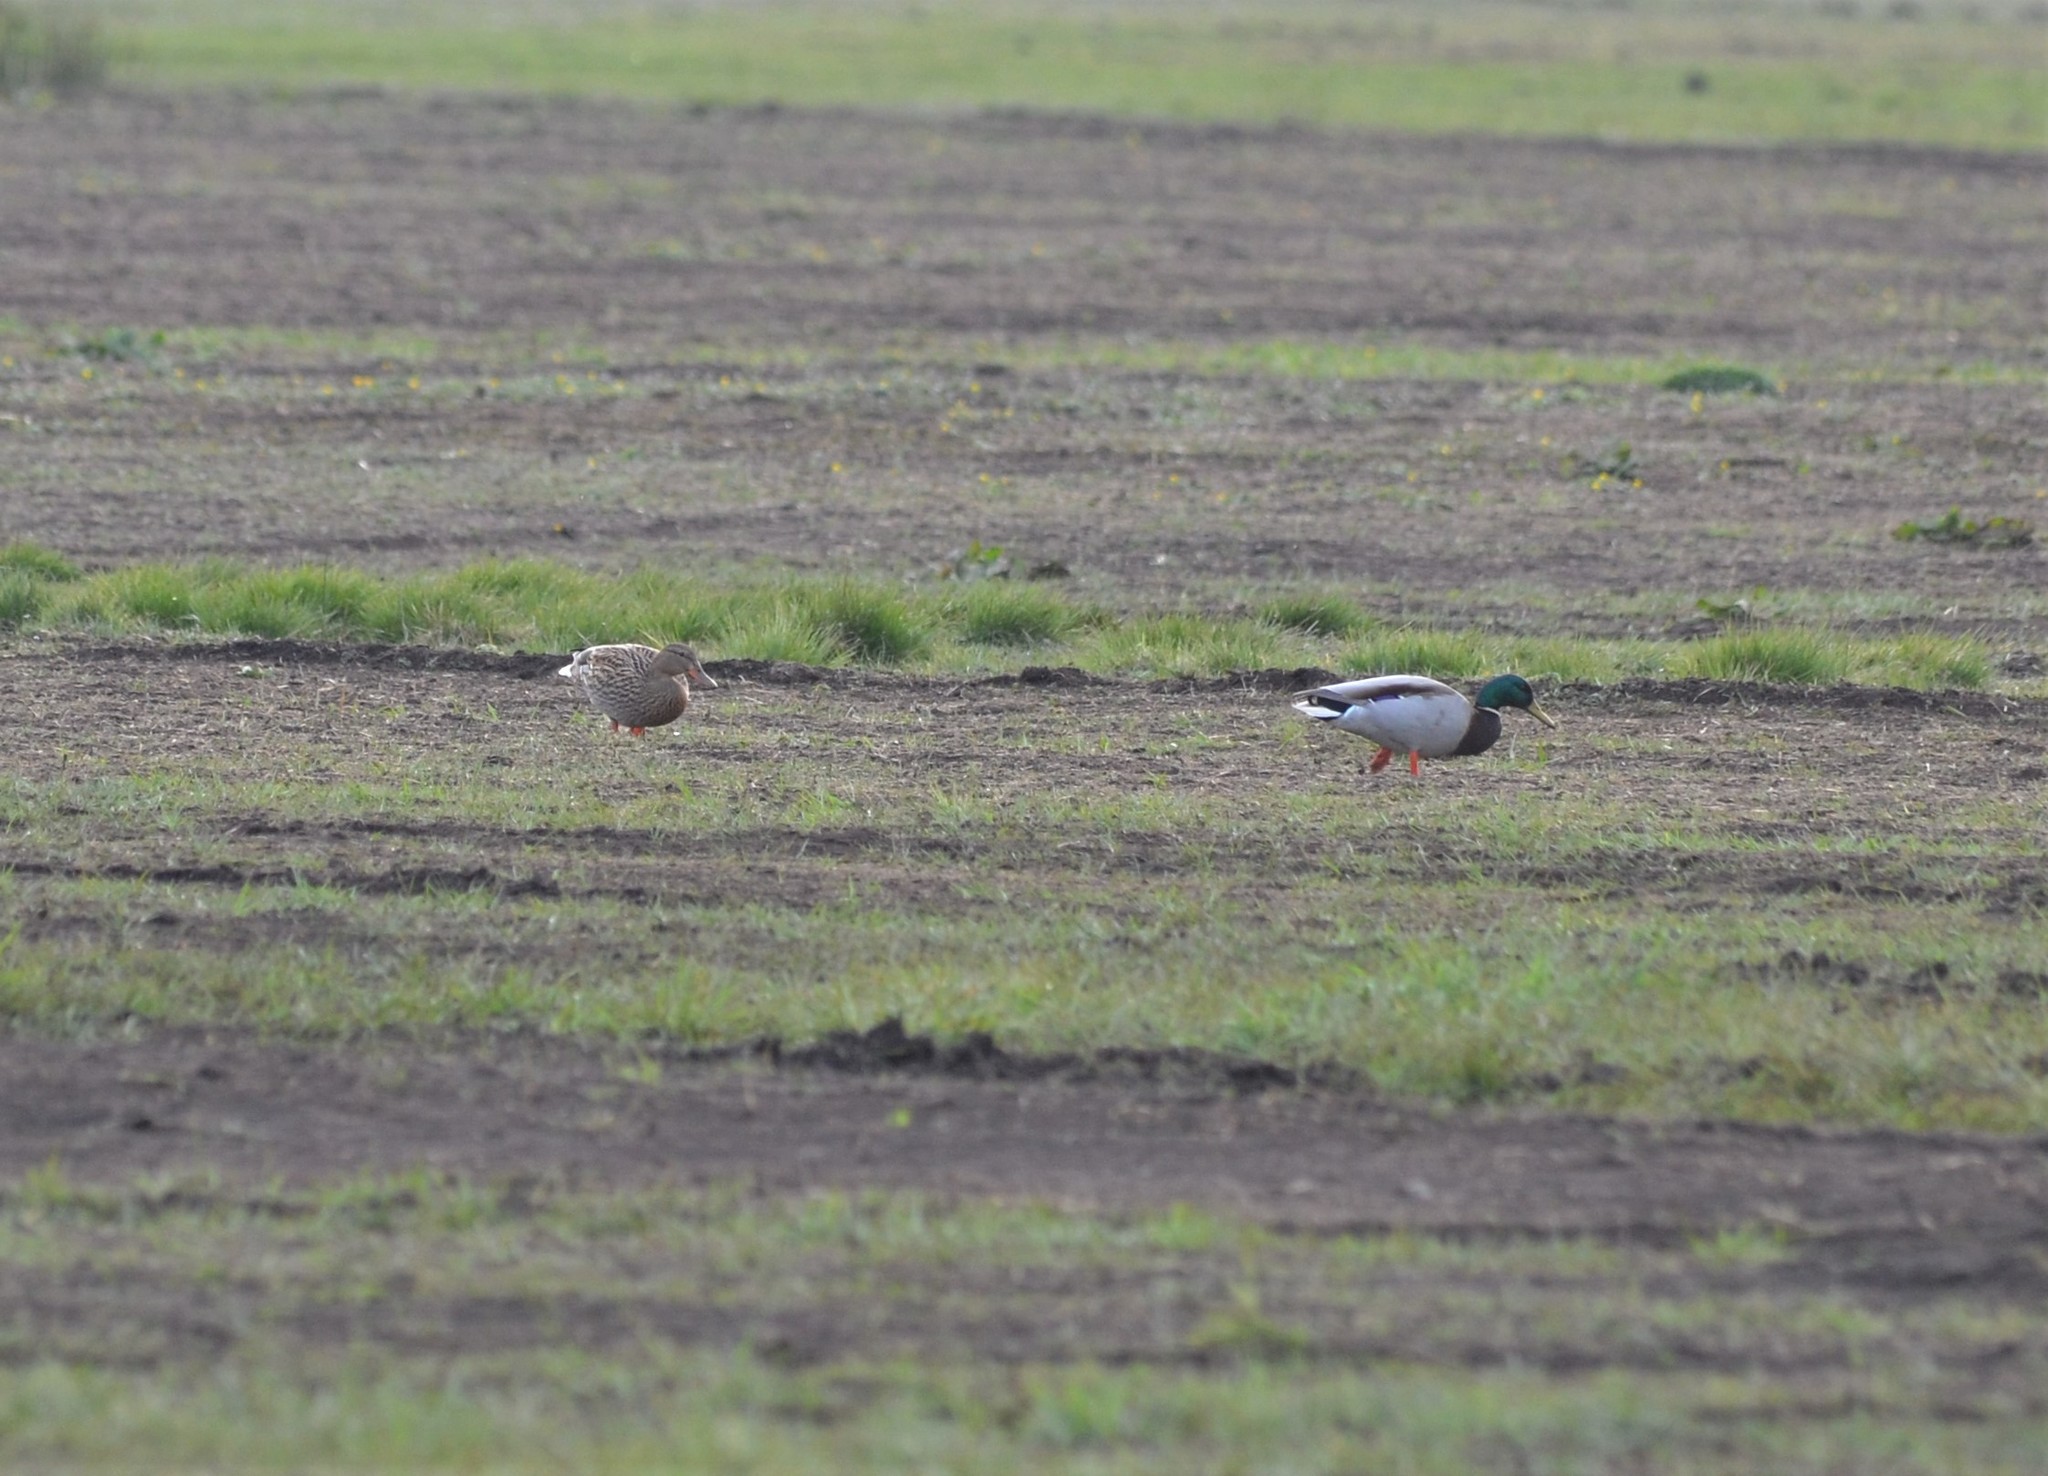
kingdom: Animalia
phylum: Chordata
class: Aves
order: Anseriformes
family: Anatidae
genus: Anas
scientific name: Anas platyrhynchos
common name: Mallard
